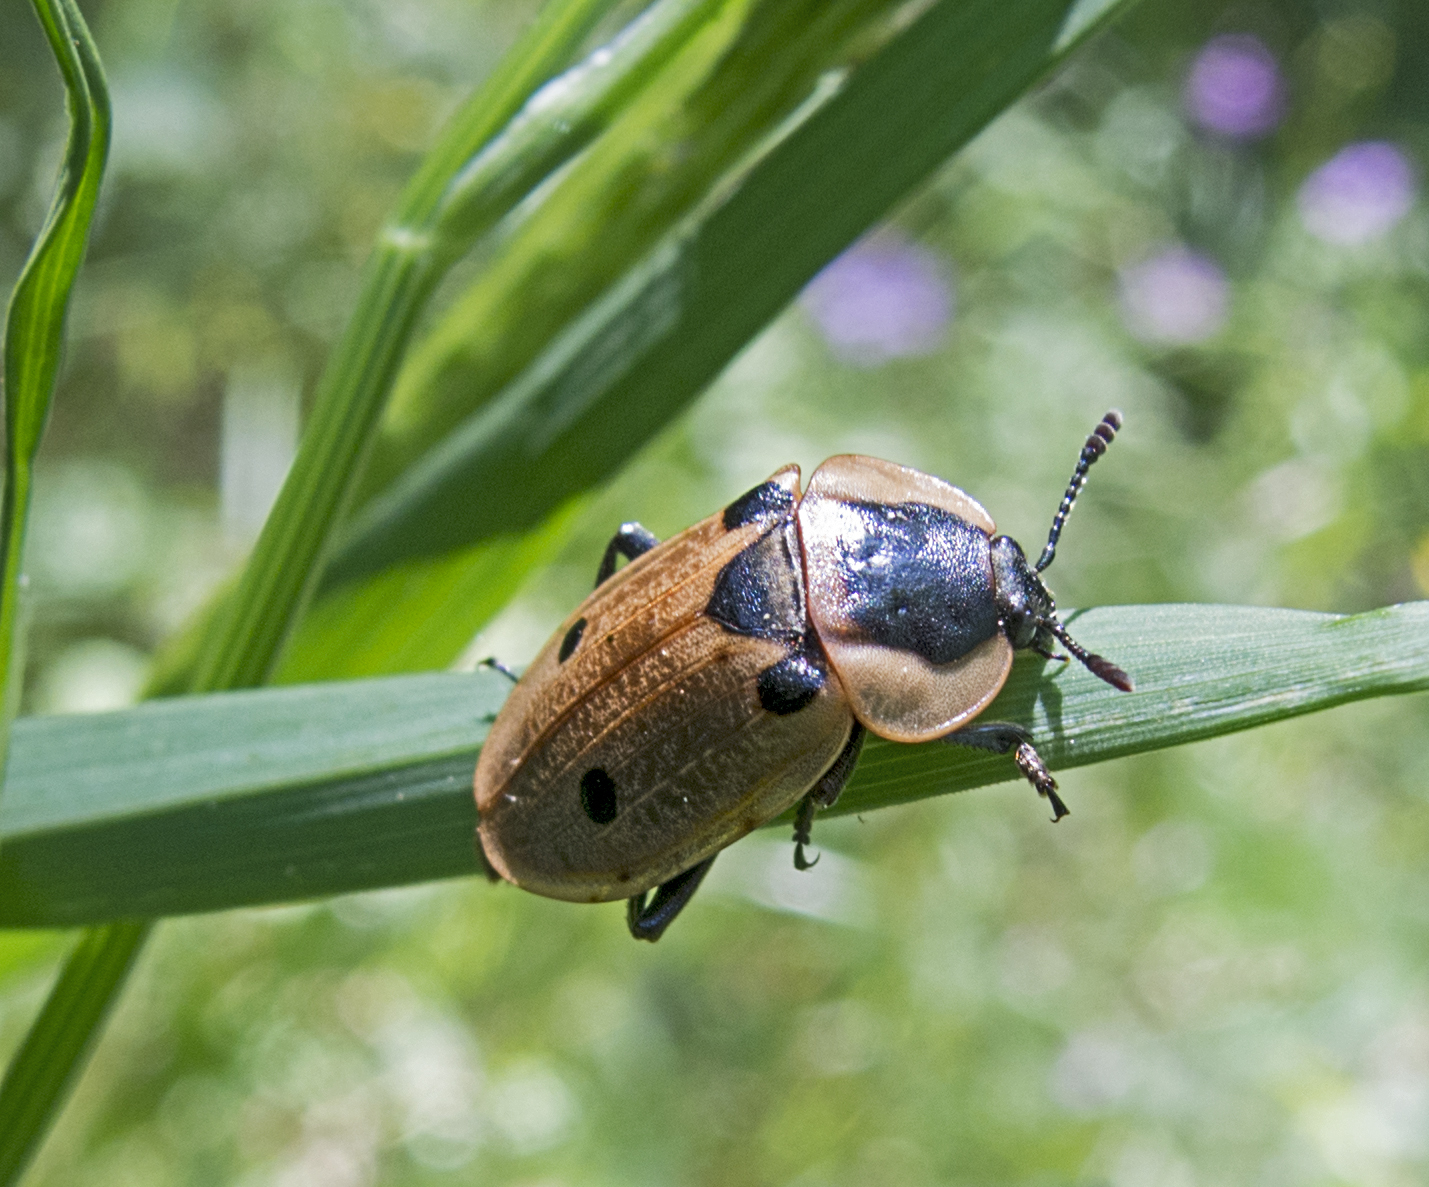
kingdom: Animalia
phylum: Arthropoda
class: Insecta
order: Coleoptera
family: Staphylinidae
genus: Dendroxena
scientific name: Dendroxena quadrimaculata
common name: Carrion beetle
